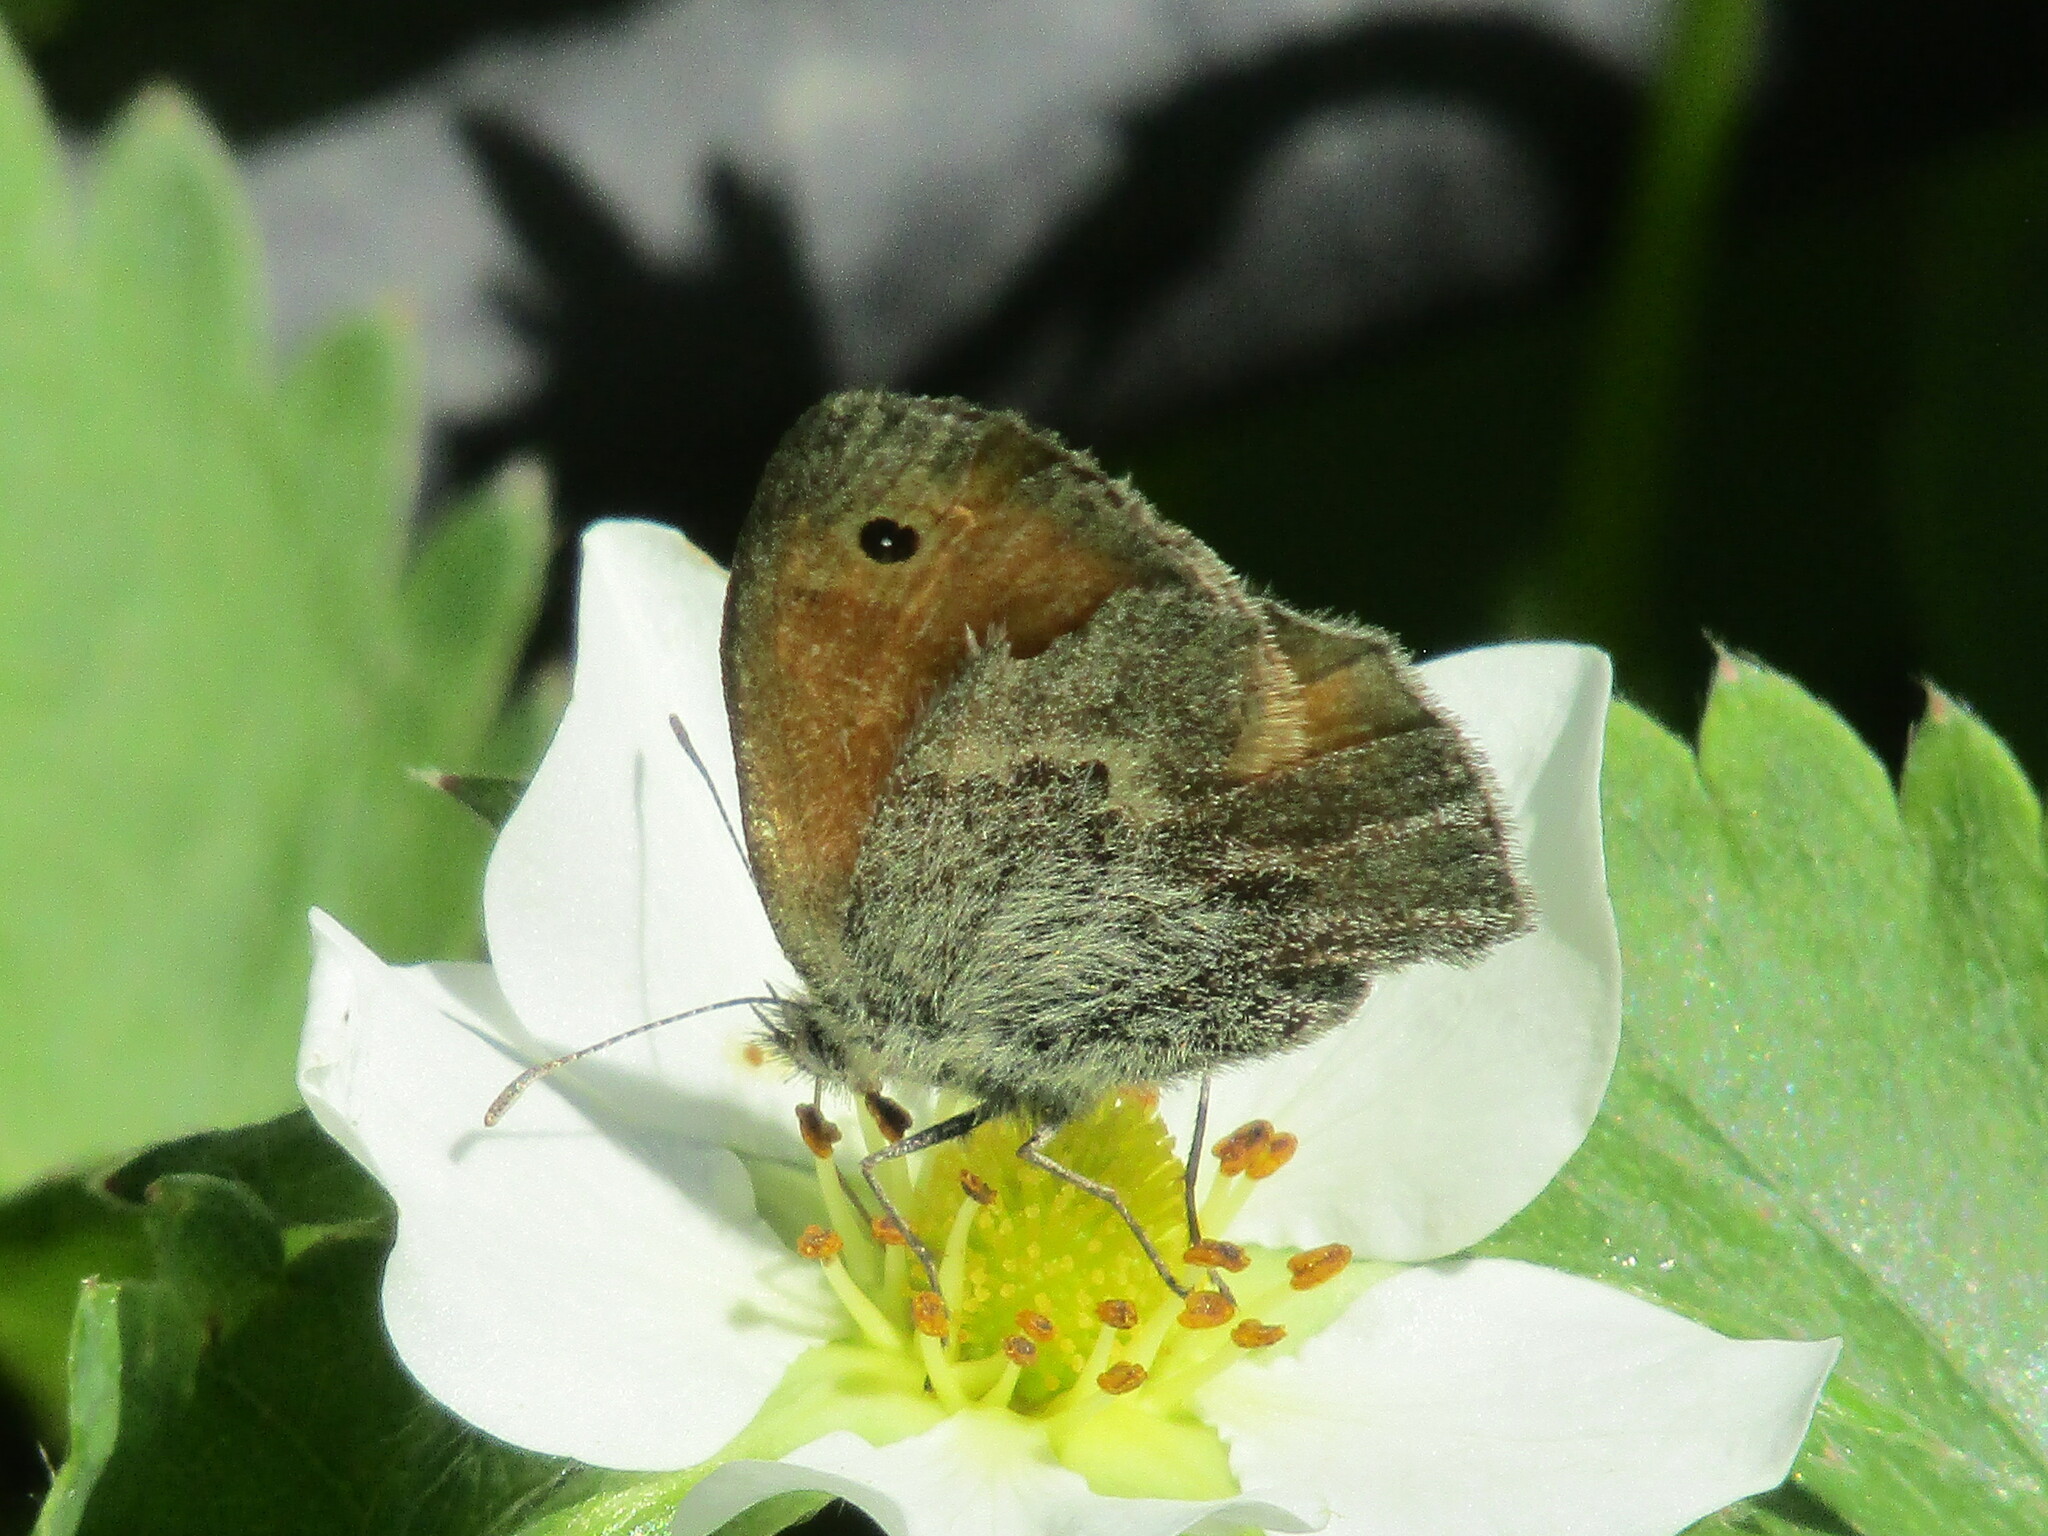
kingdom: Animalia
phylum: Arthropoda
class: Insecta
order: Lepidoptera
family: Nymphalidae
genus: Coenonympha
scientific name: Coenonympha pamphilus
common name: Small heath
